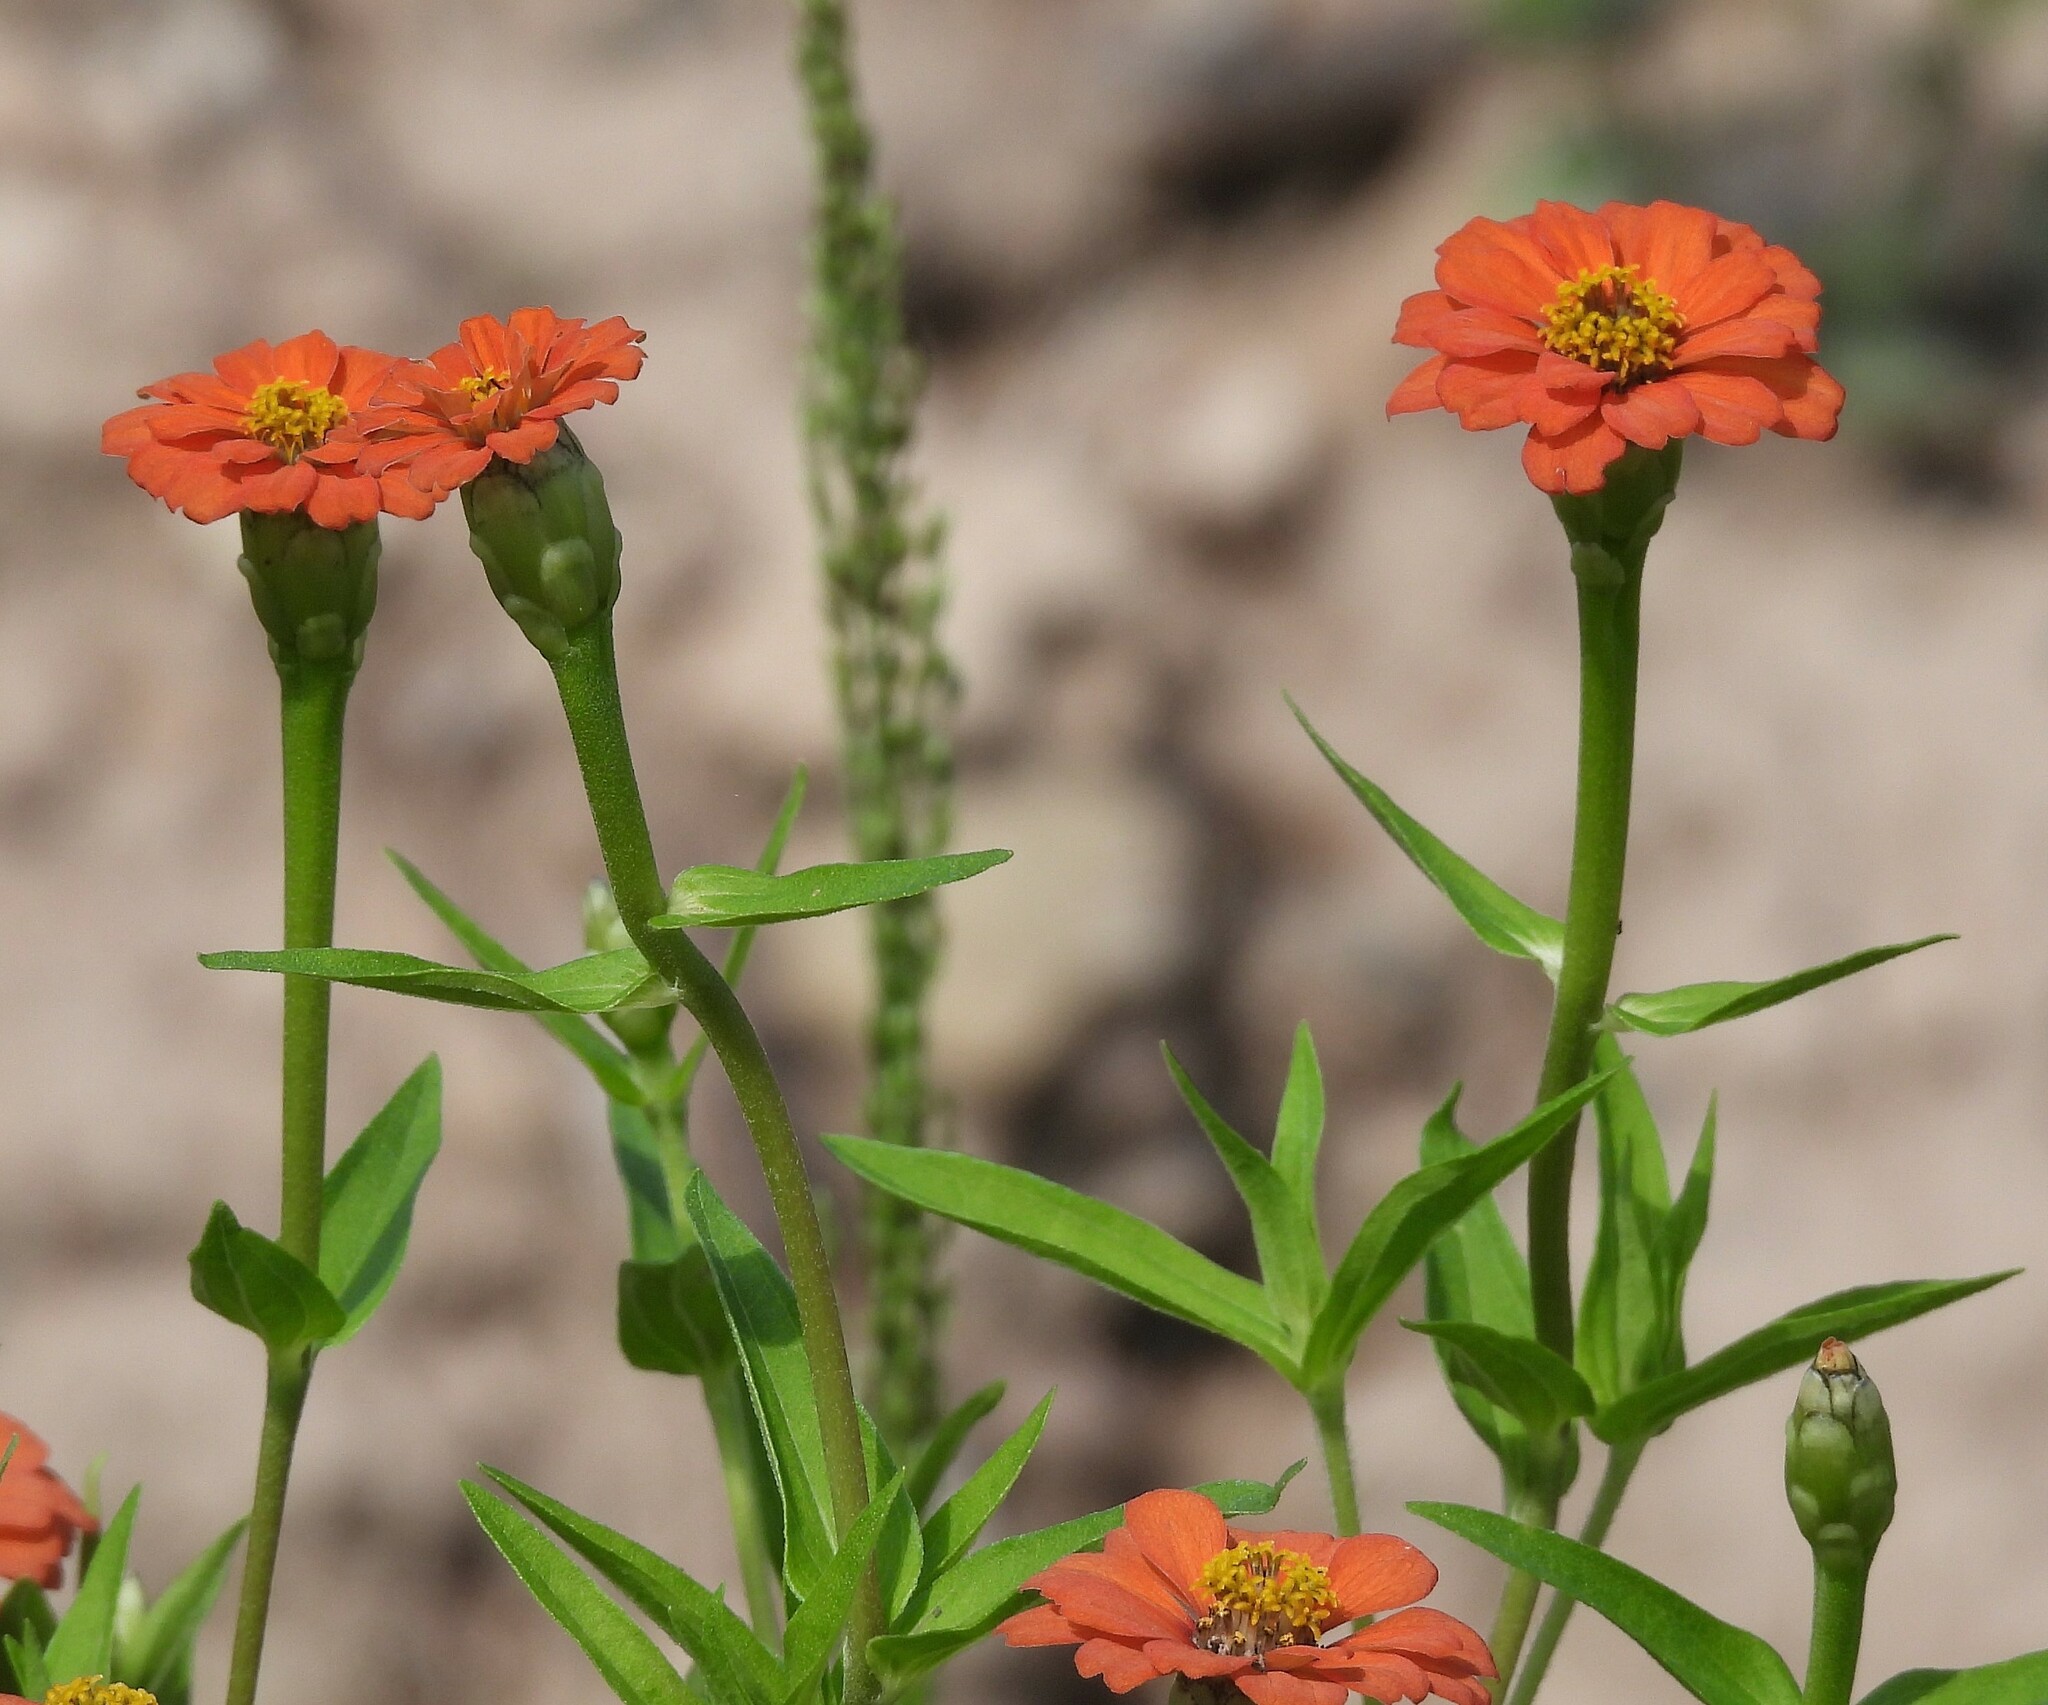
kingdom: Plantae
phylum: Tracheophyta
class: Magnoliopsida
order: Asterales
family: Asteraceae
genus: Zinnia
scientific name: Zinnia peruviana
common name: Peruvian zinnia
